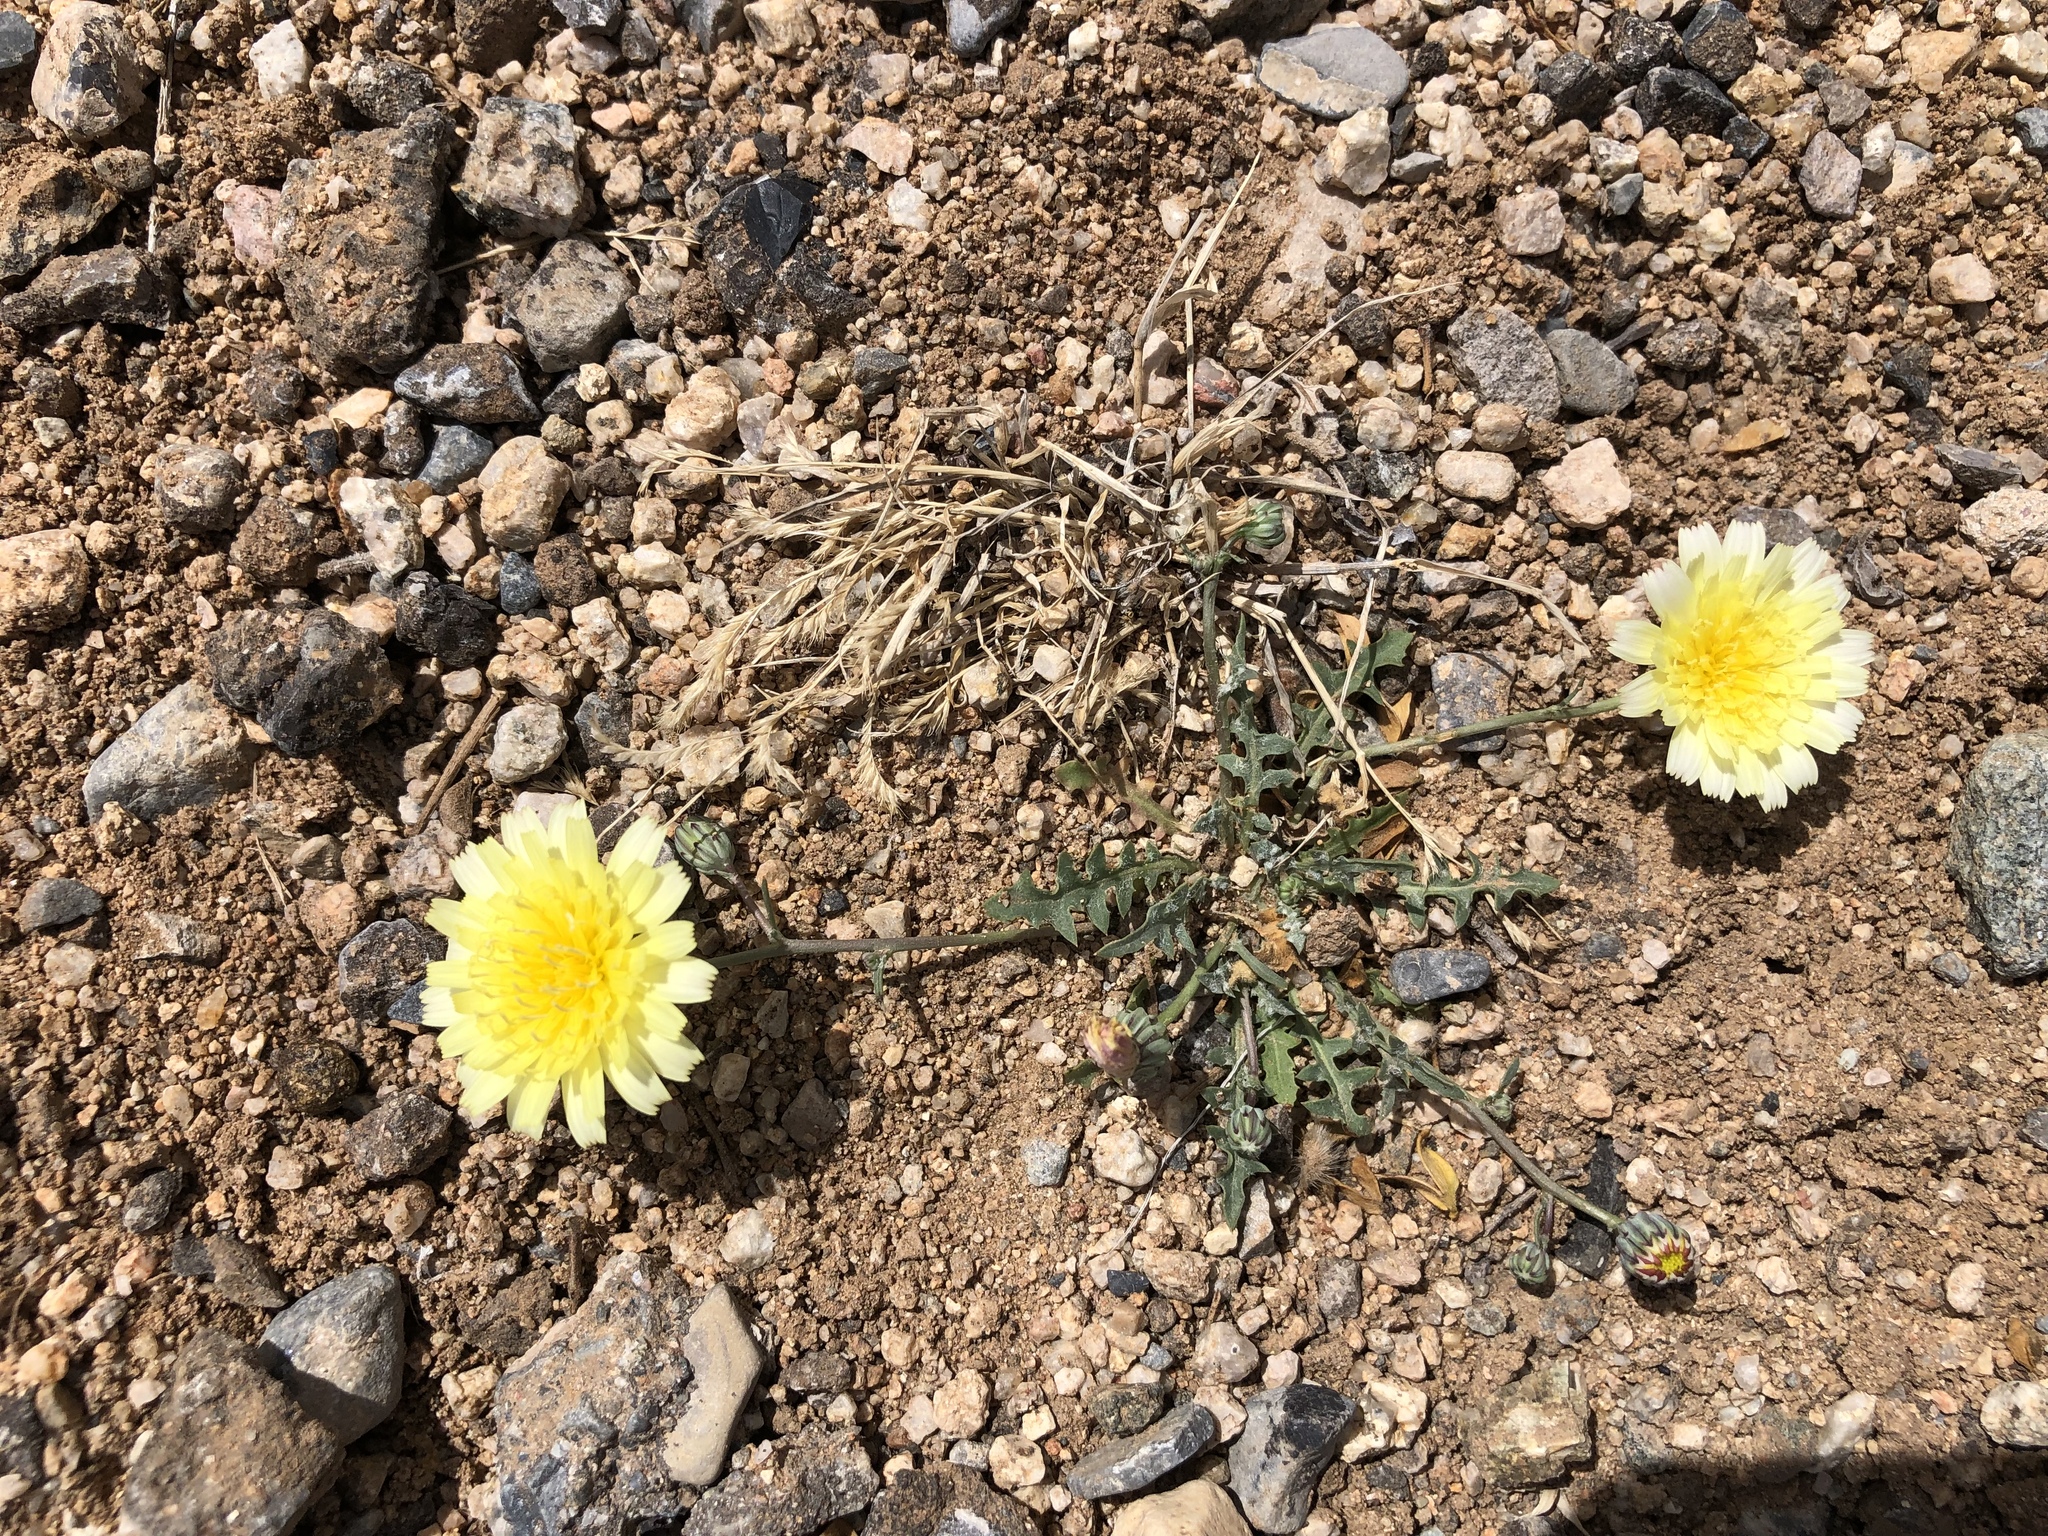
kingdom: Plantae
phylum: Tracheophyta
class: Magnoliopsida
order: Asterales
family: Asteraceae
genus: Malacothrix
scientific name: Malacothrix fendleri
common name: Fendler's desert-dandelion
